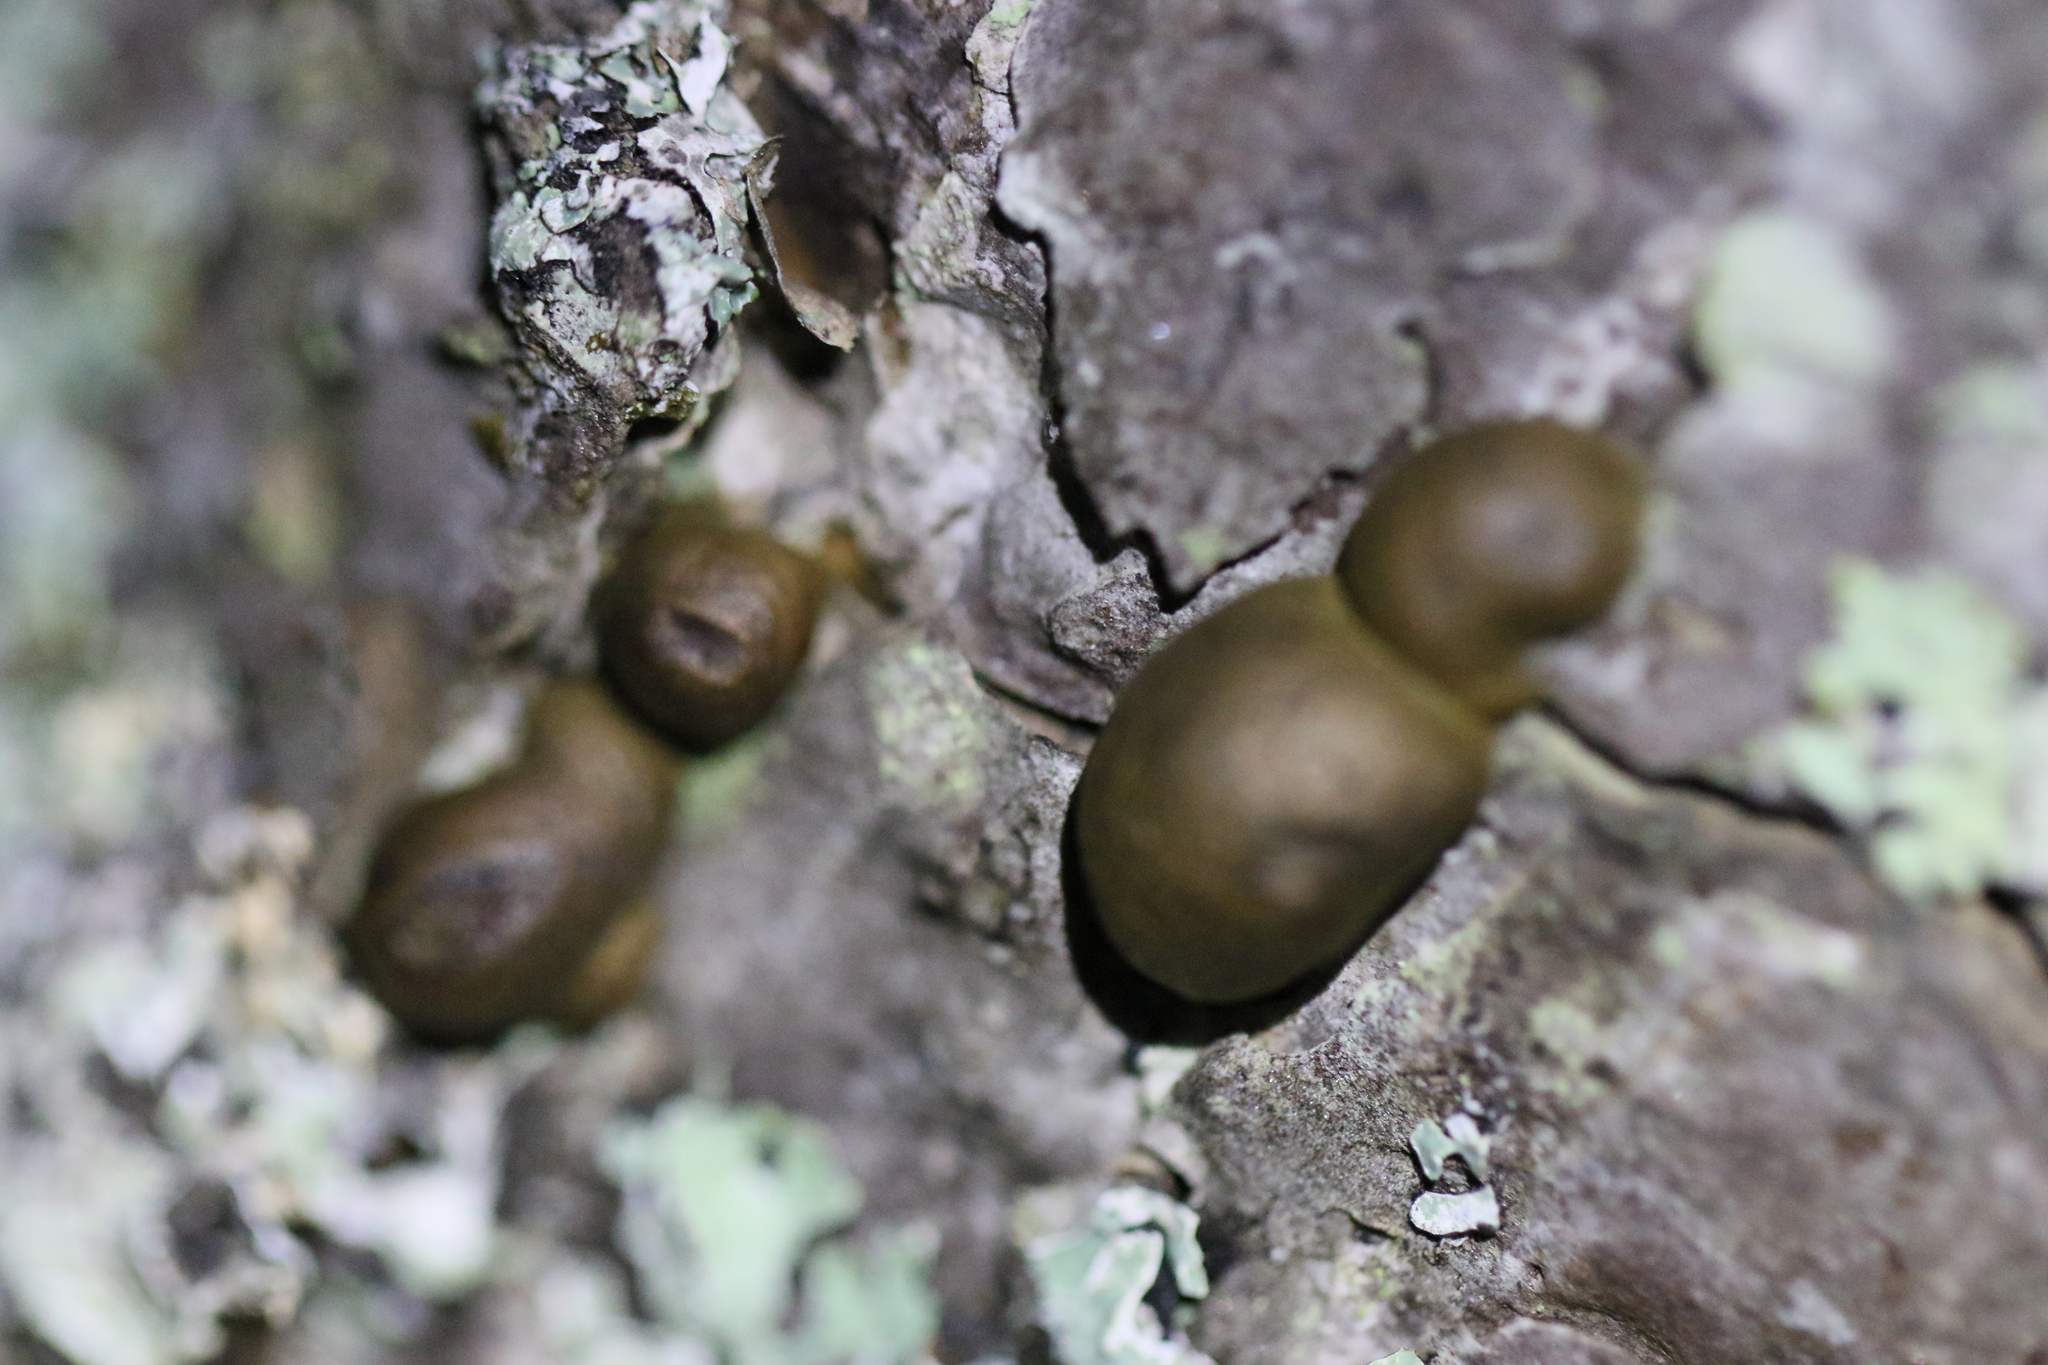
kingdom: Protozoa
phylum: Mycetozoa
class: Myxomycetes
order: Cribrariales
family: Tubiferaceae
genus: Lycogala
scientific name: Lycogala epidendrum
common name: Wolf's milk
